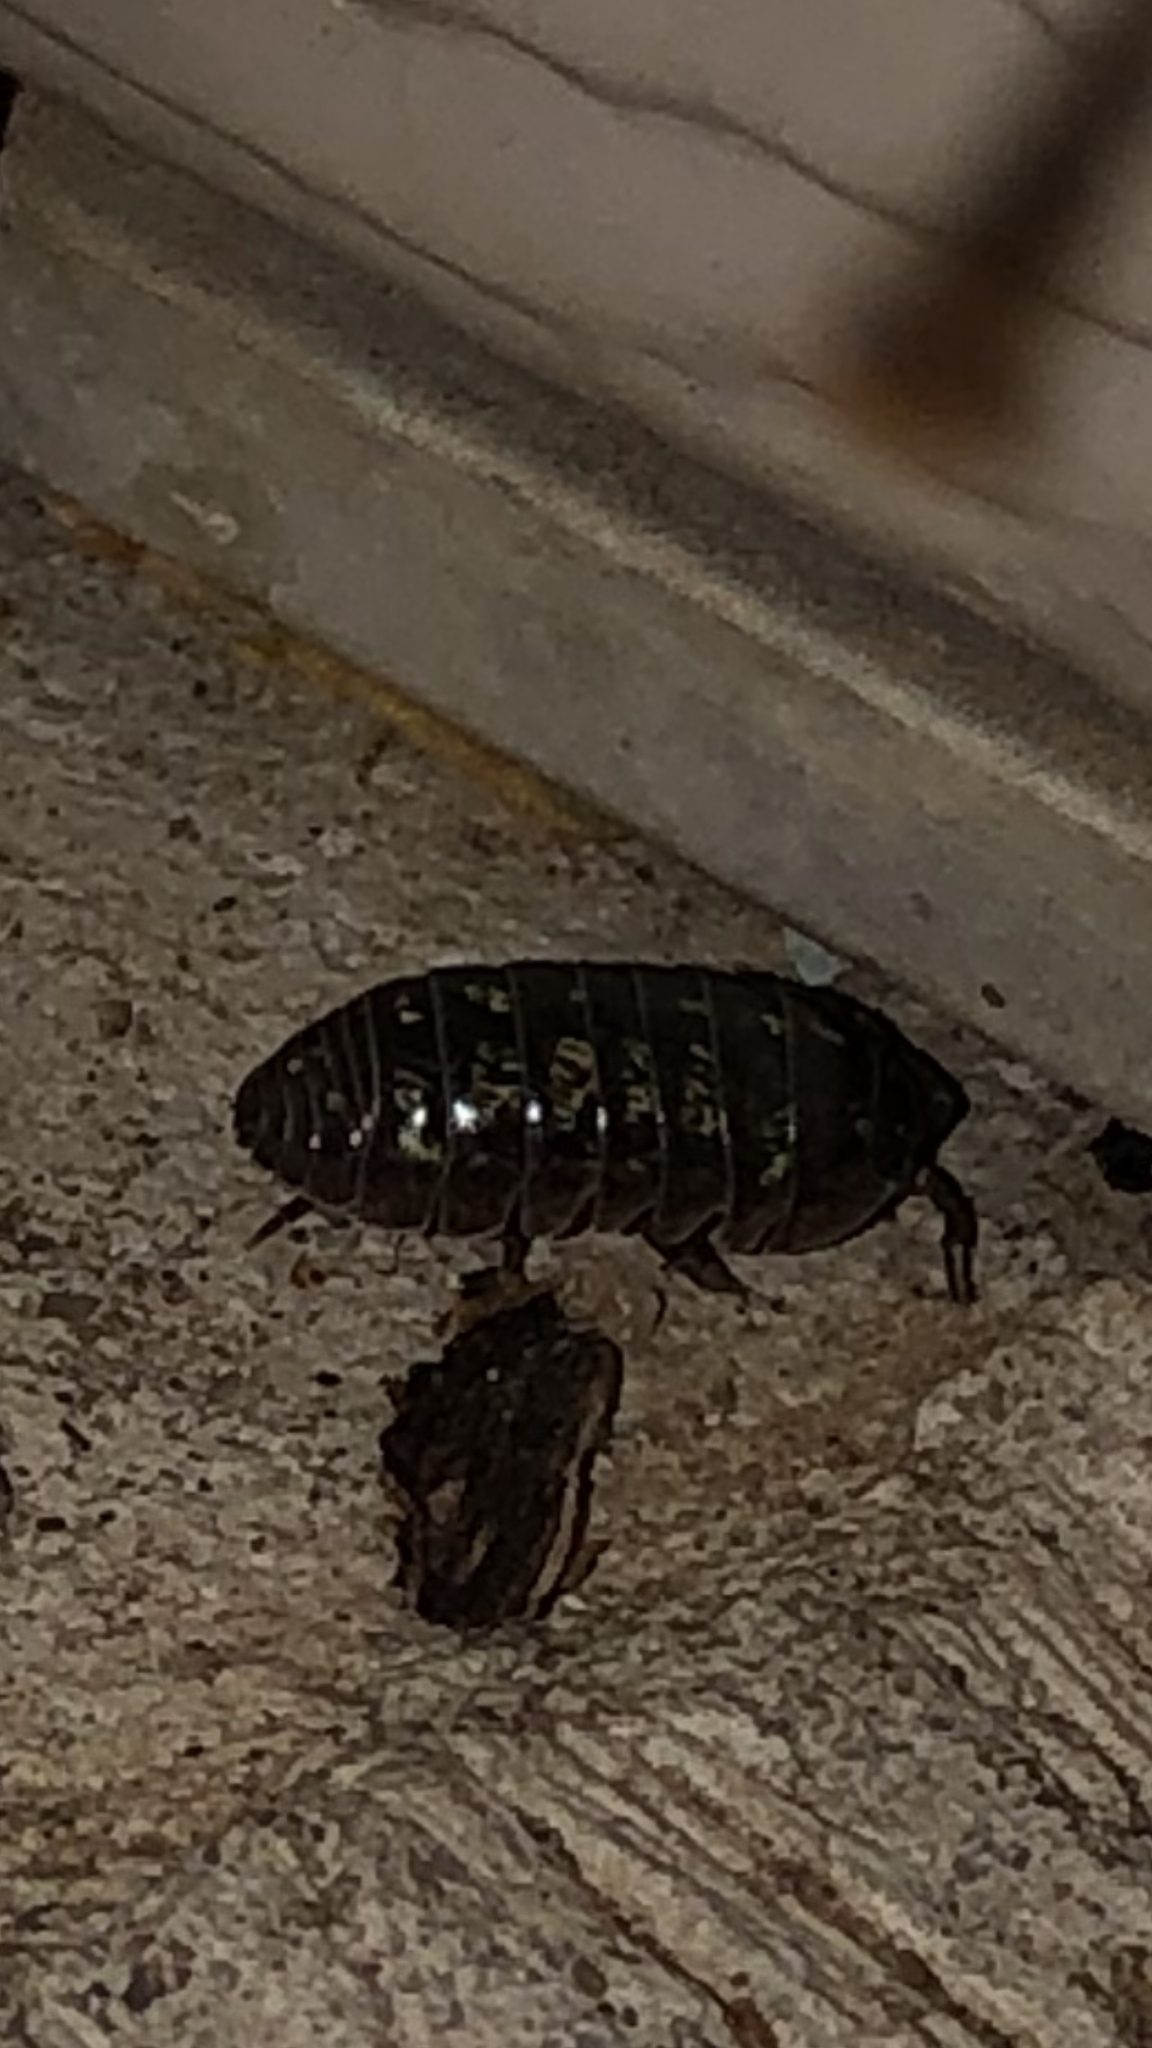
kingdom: Animalia
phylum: Arthropoda
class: Malacostraca
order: Isopoda
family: Armadillidiidae
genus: Armadillidium
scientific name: Armadillidium vulgare
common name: Common pill woodlouse
